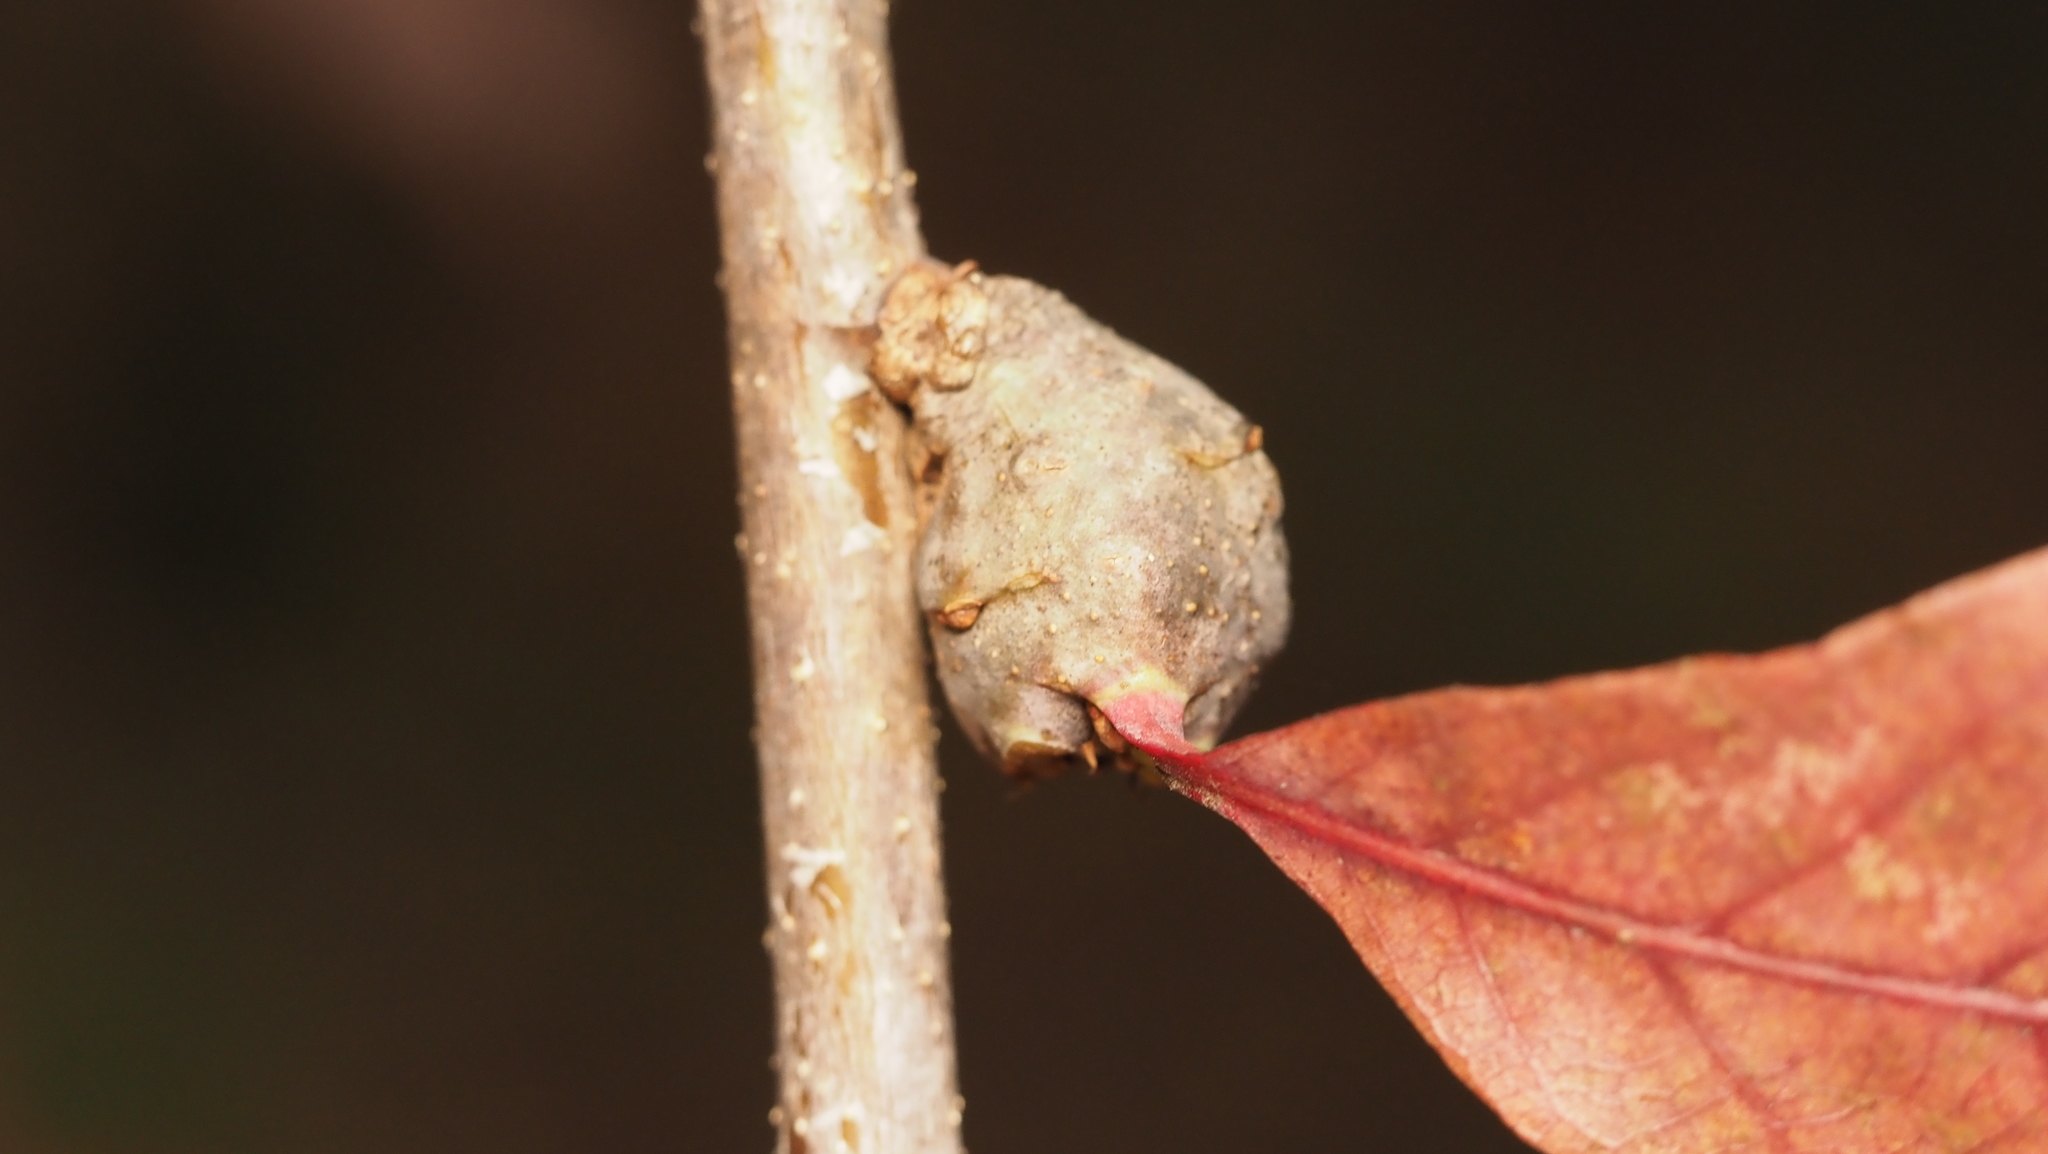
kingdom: Animalia
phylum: Arthropoda
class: Insecta
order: Hymenoptera
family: Cynipidae
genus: Neuroterus
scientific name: Neuroterus quercusbaccarum
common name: Common spangle gall
